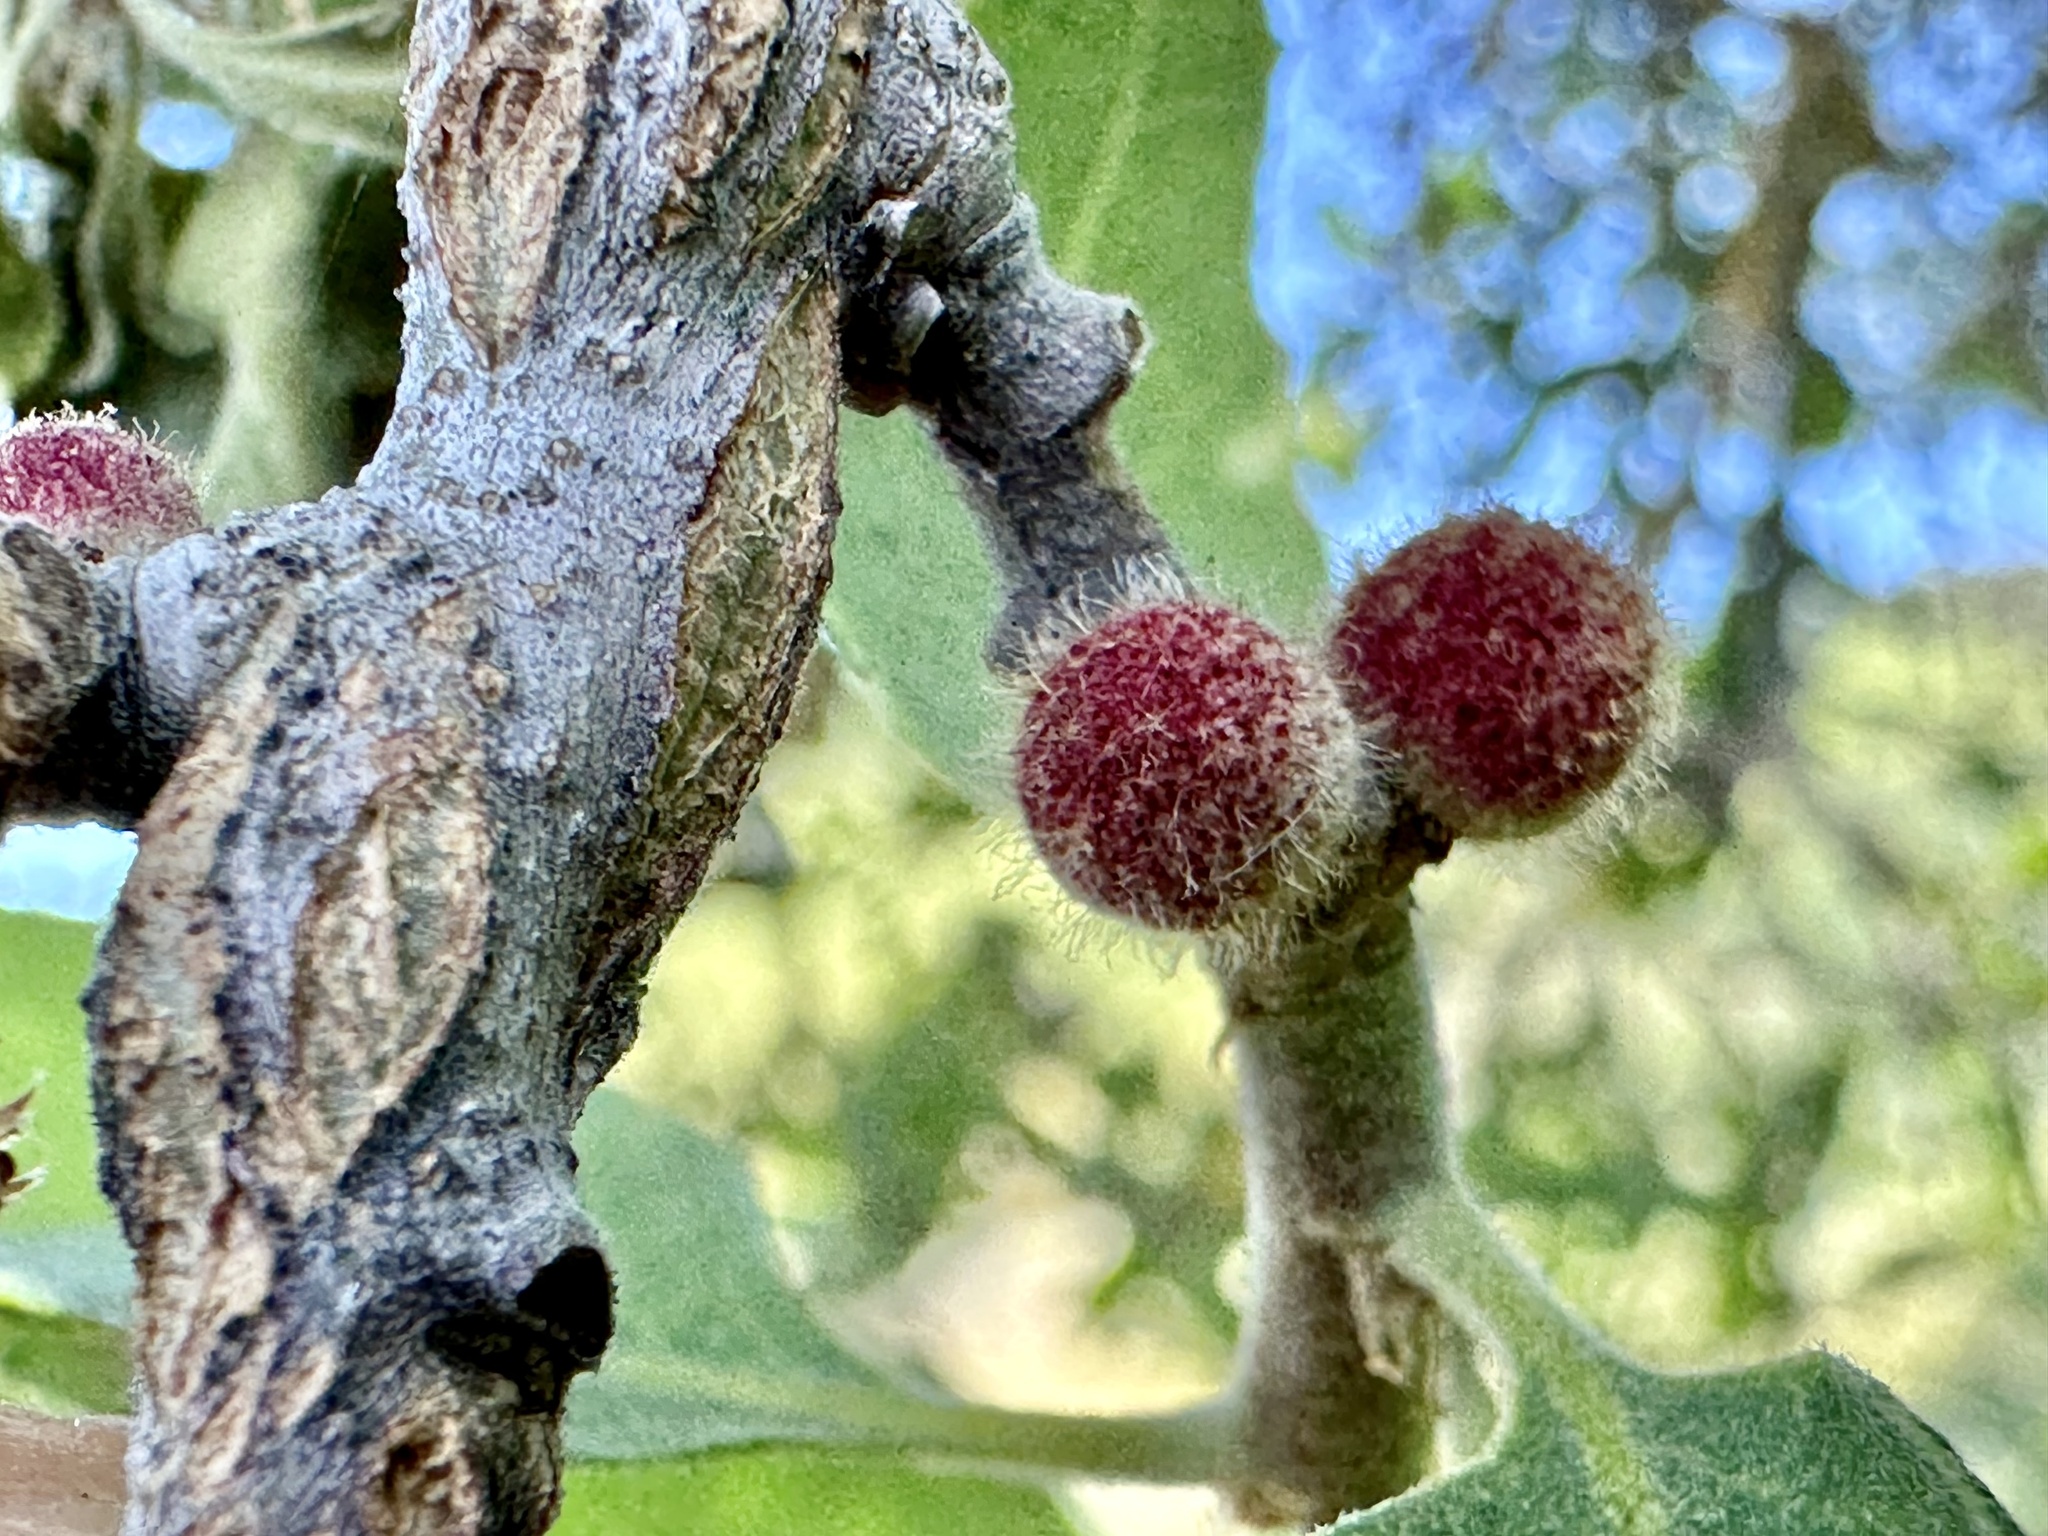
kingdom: Animalia
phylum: Arthropoda
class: Insecta
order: Hymenoptera
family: Cynipidae
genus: Burnettweldia
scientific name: Burnettweldia
